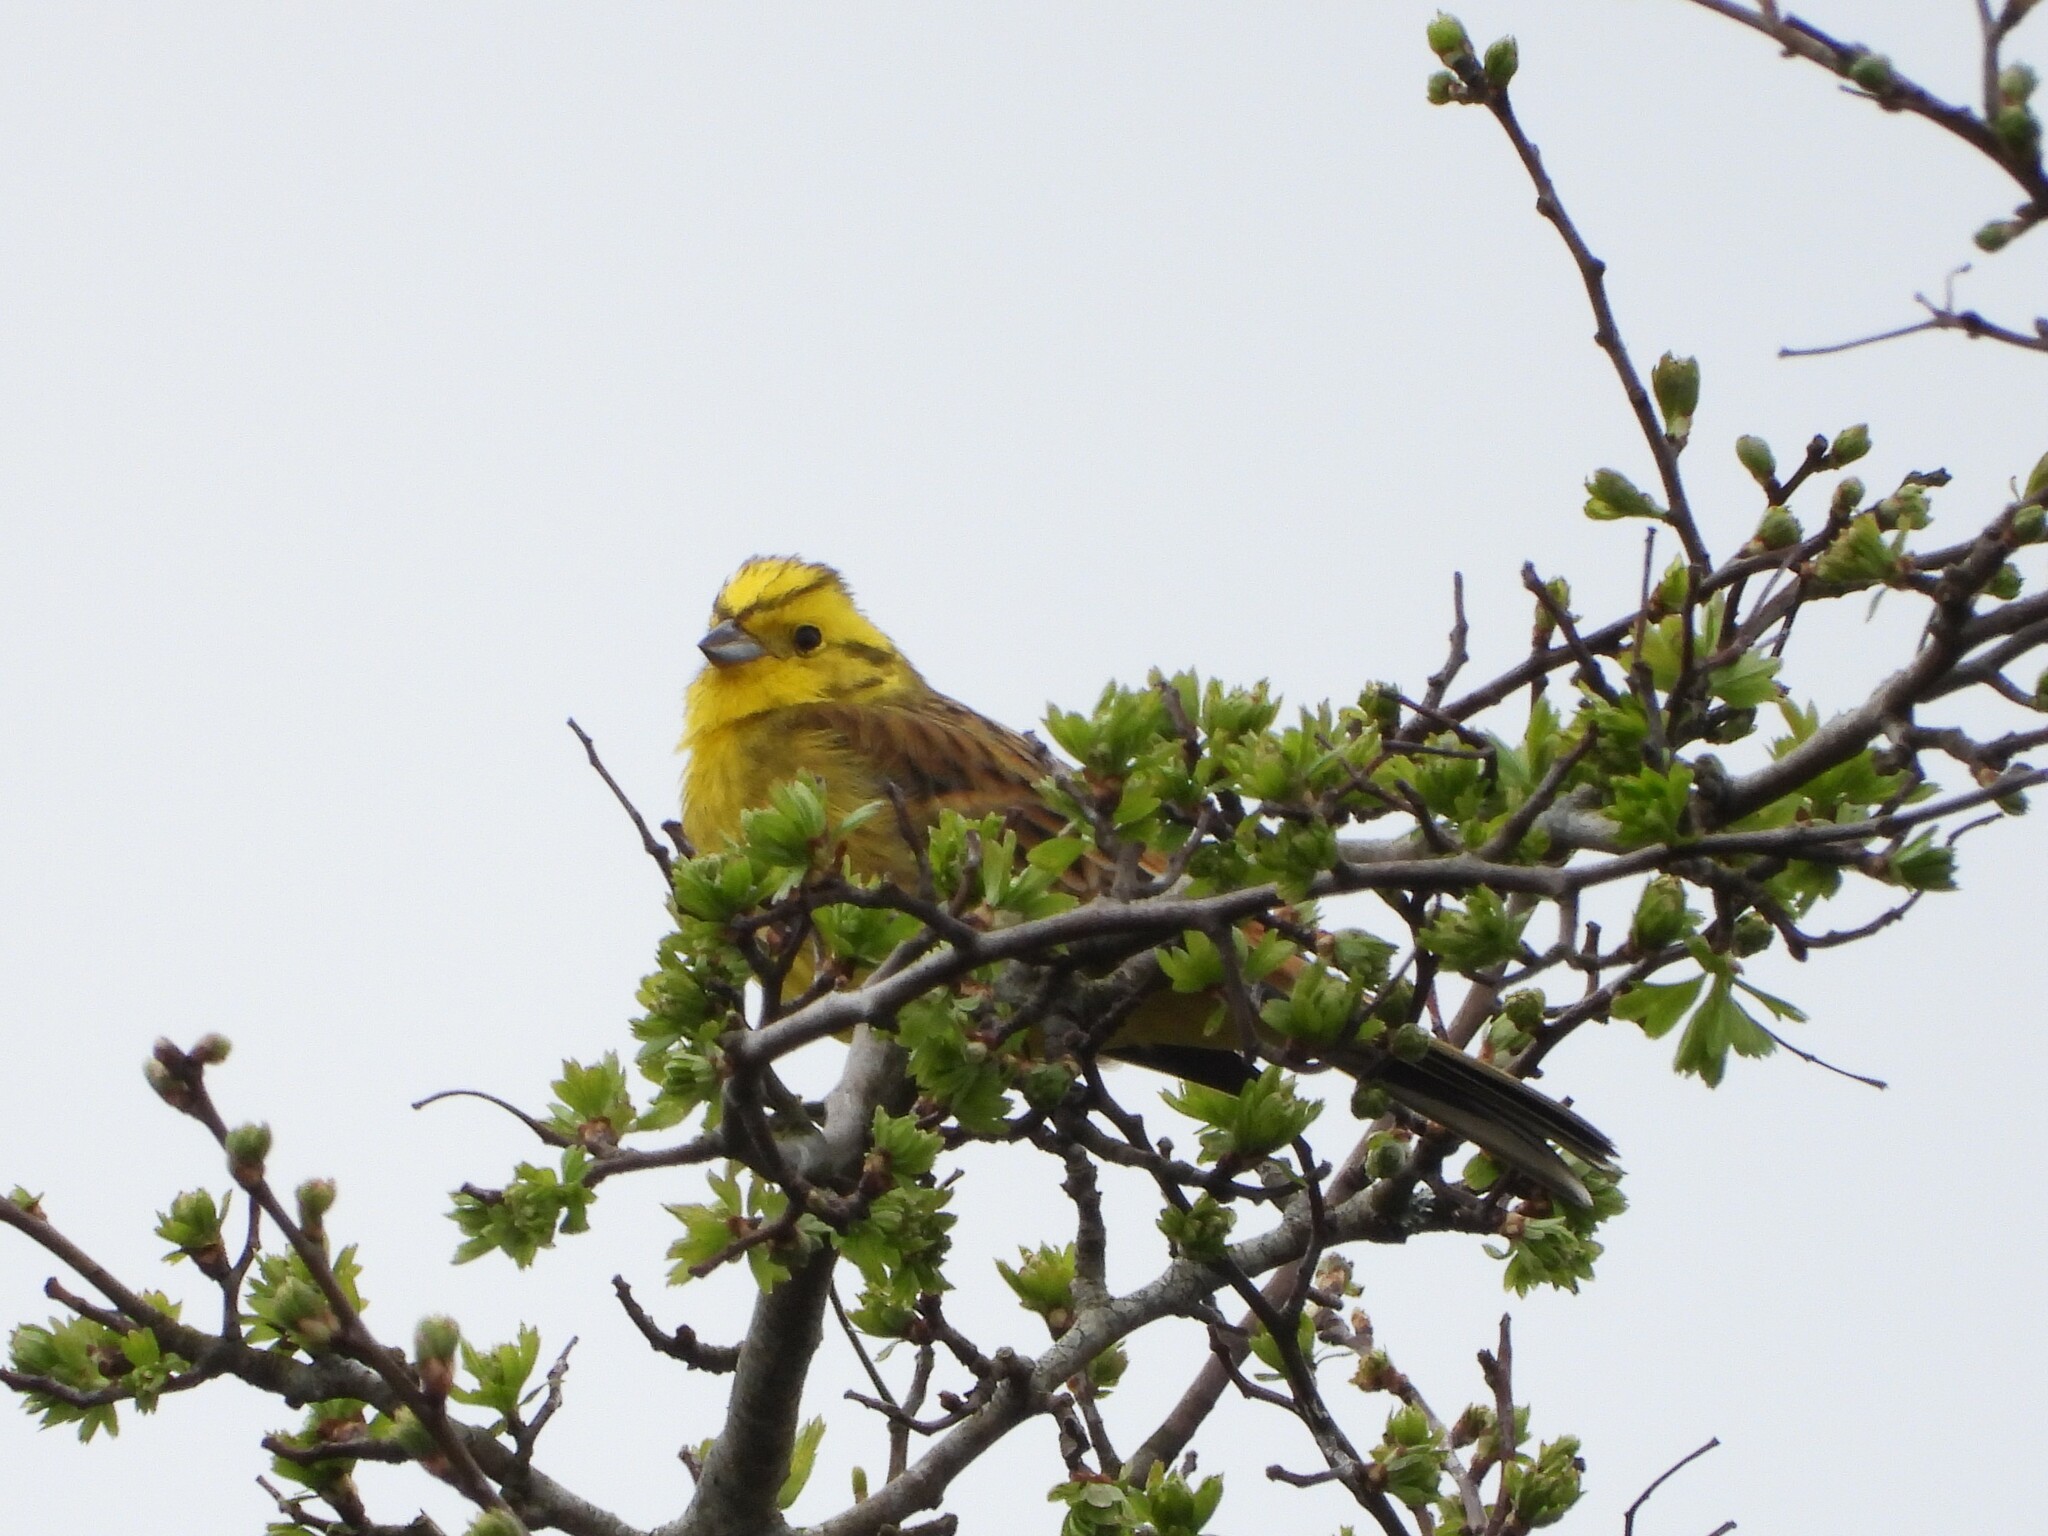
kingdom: Animalia
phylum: Chordata
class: Aves
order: Passeriformes
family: Emberizidae
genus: Emberiza
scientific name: Emberiza citrinella
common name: Yellowhammer
